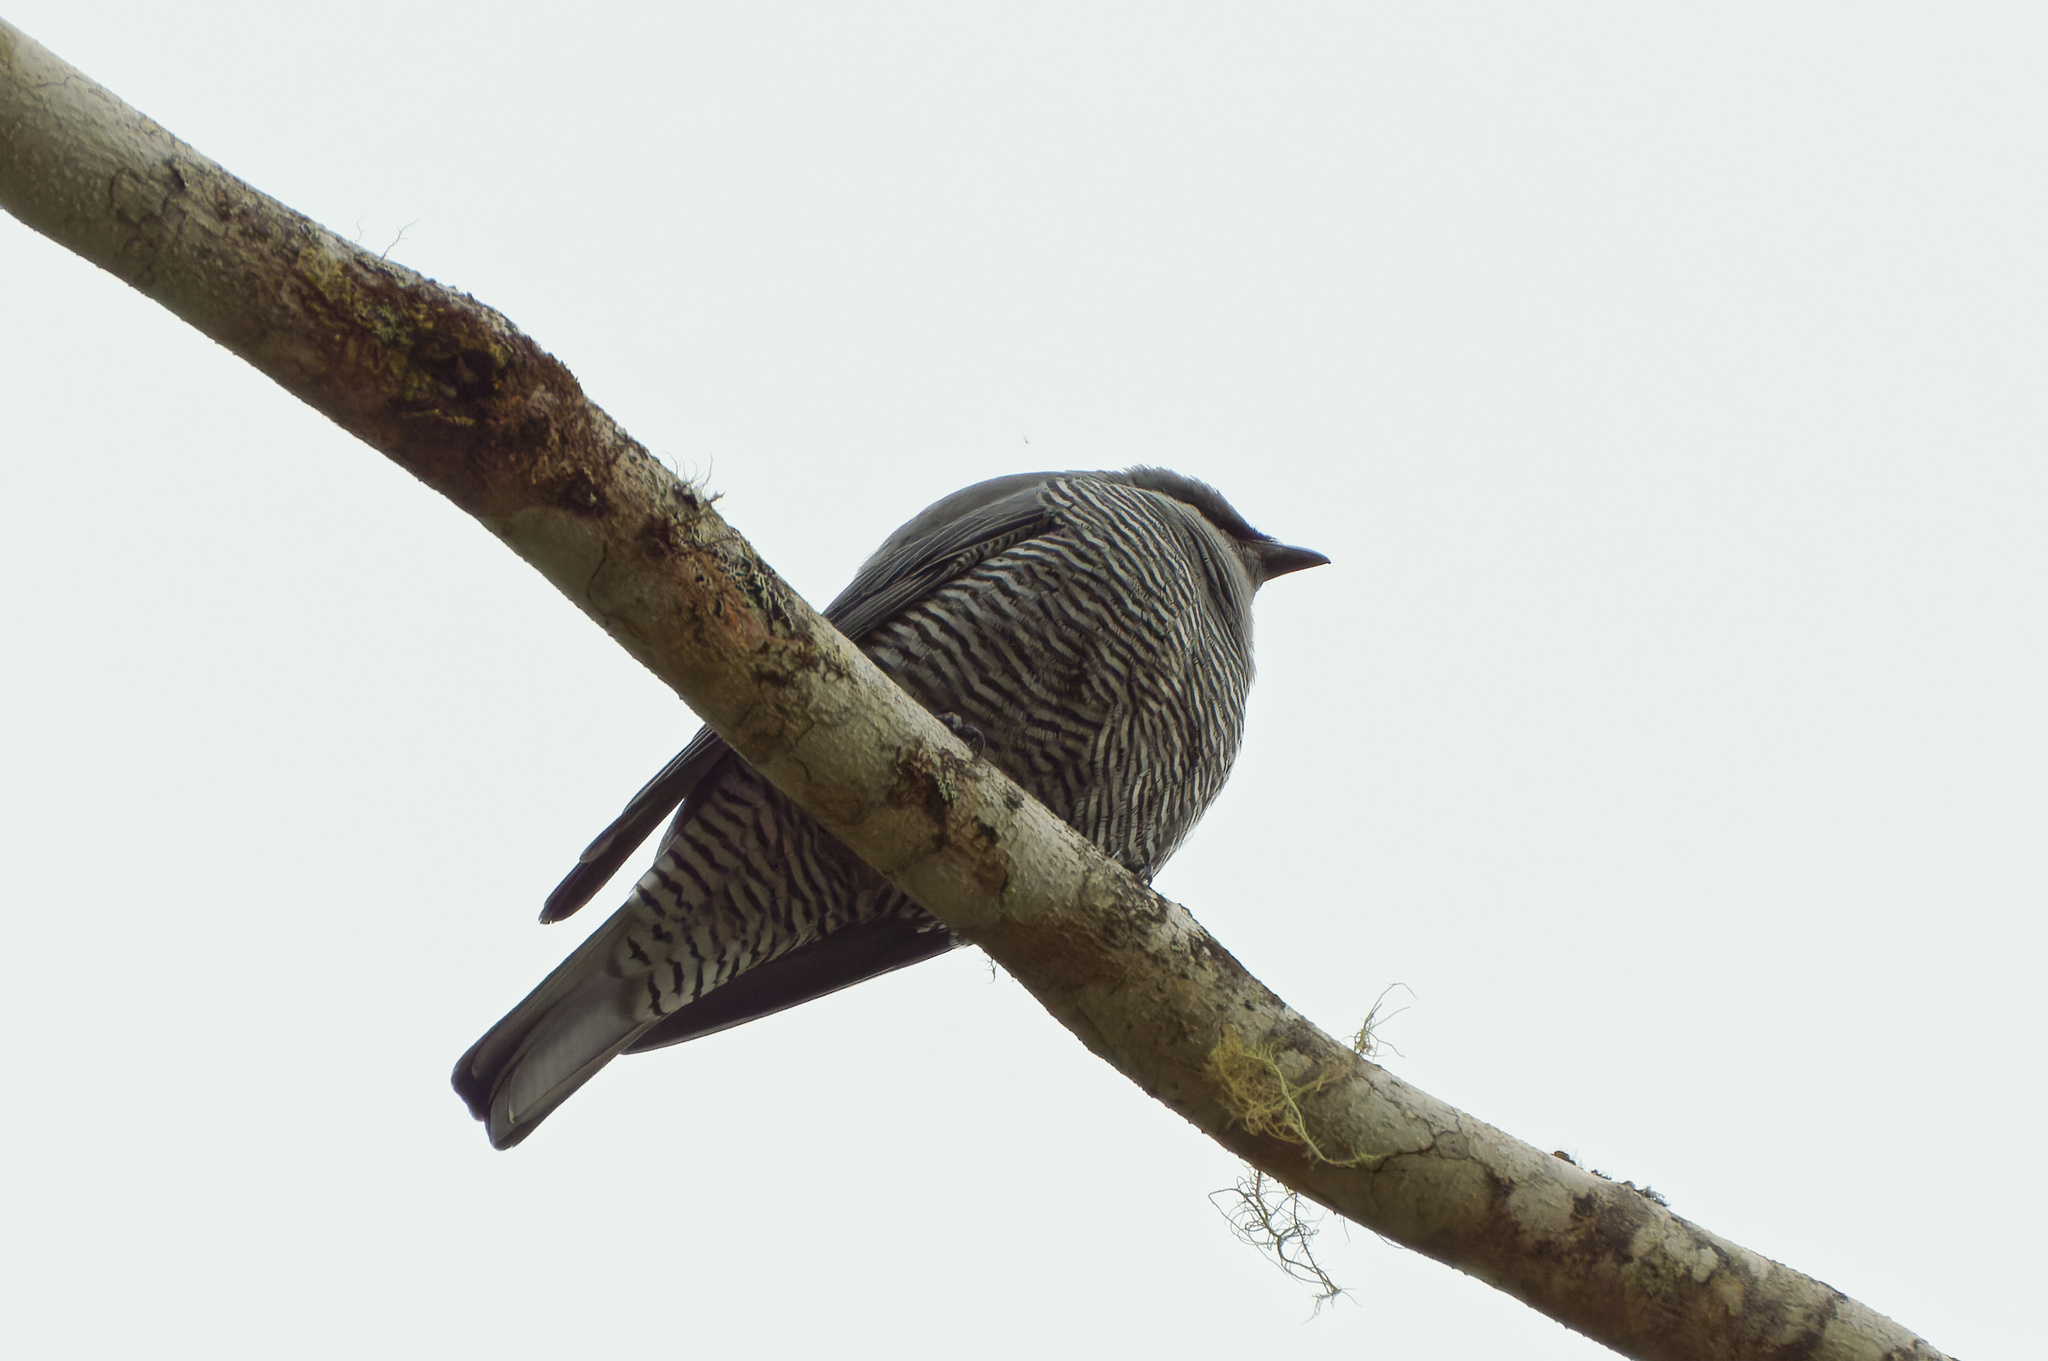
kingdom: Animalia
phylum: Chordata
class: Aves
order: Passeriformes
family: Campephagidae
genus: Coracina
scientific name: Coracina lineata
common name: Barred cuckooshrike
